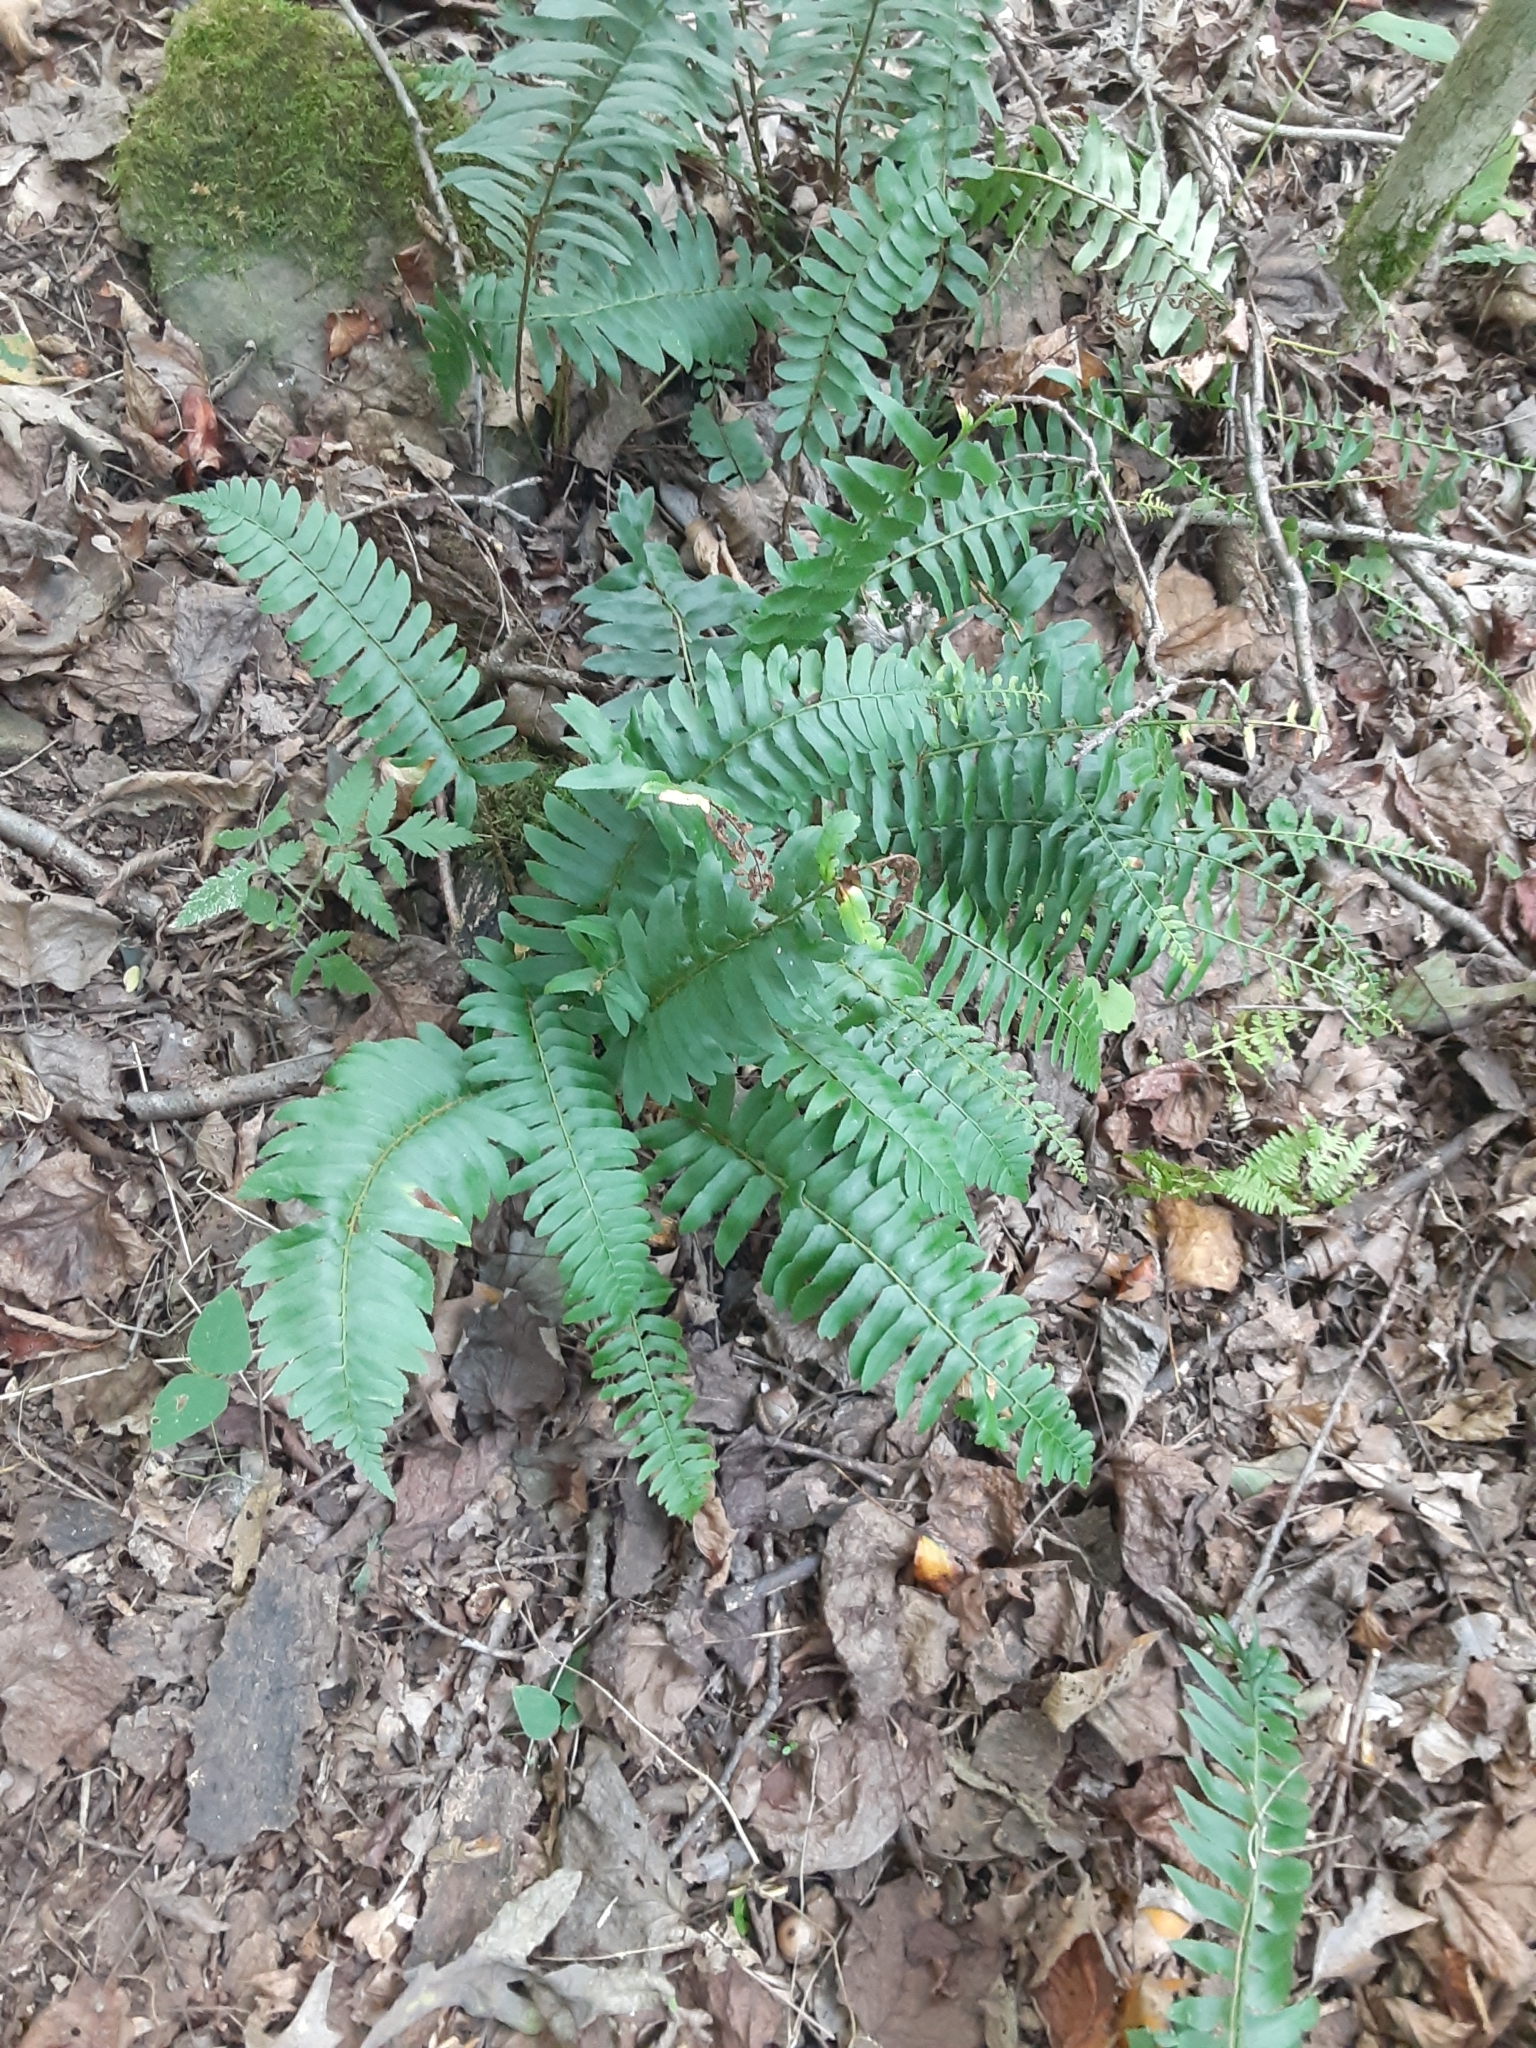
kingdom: Plantae
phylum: Tracheophyta
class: Polypodiopsida
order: Polypodiales
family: Dryopteridaceae
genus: Polystichum
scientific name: Polystichum acrostichoides
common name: Christmas fern
